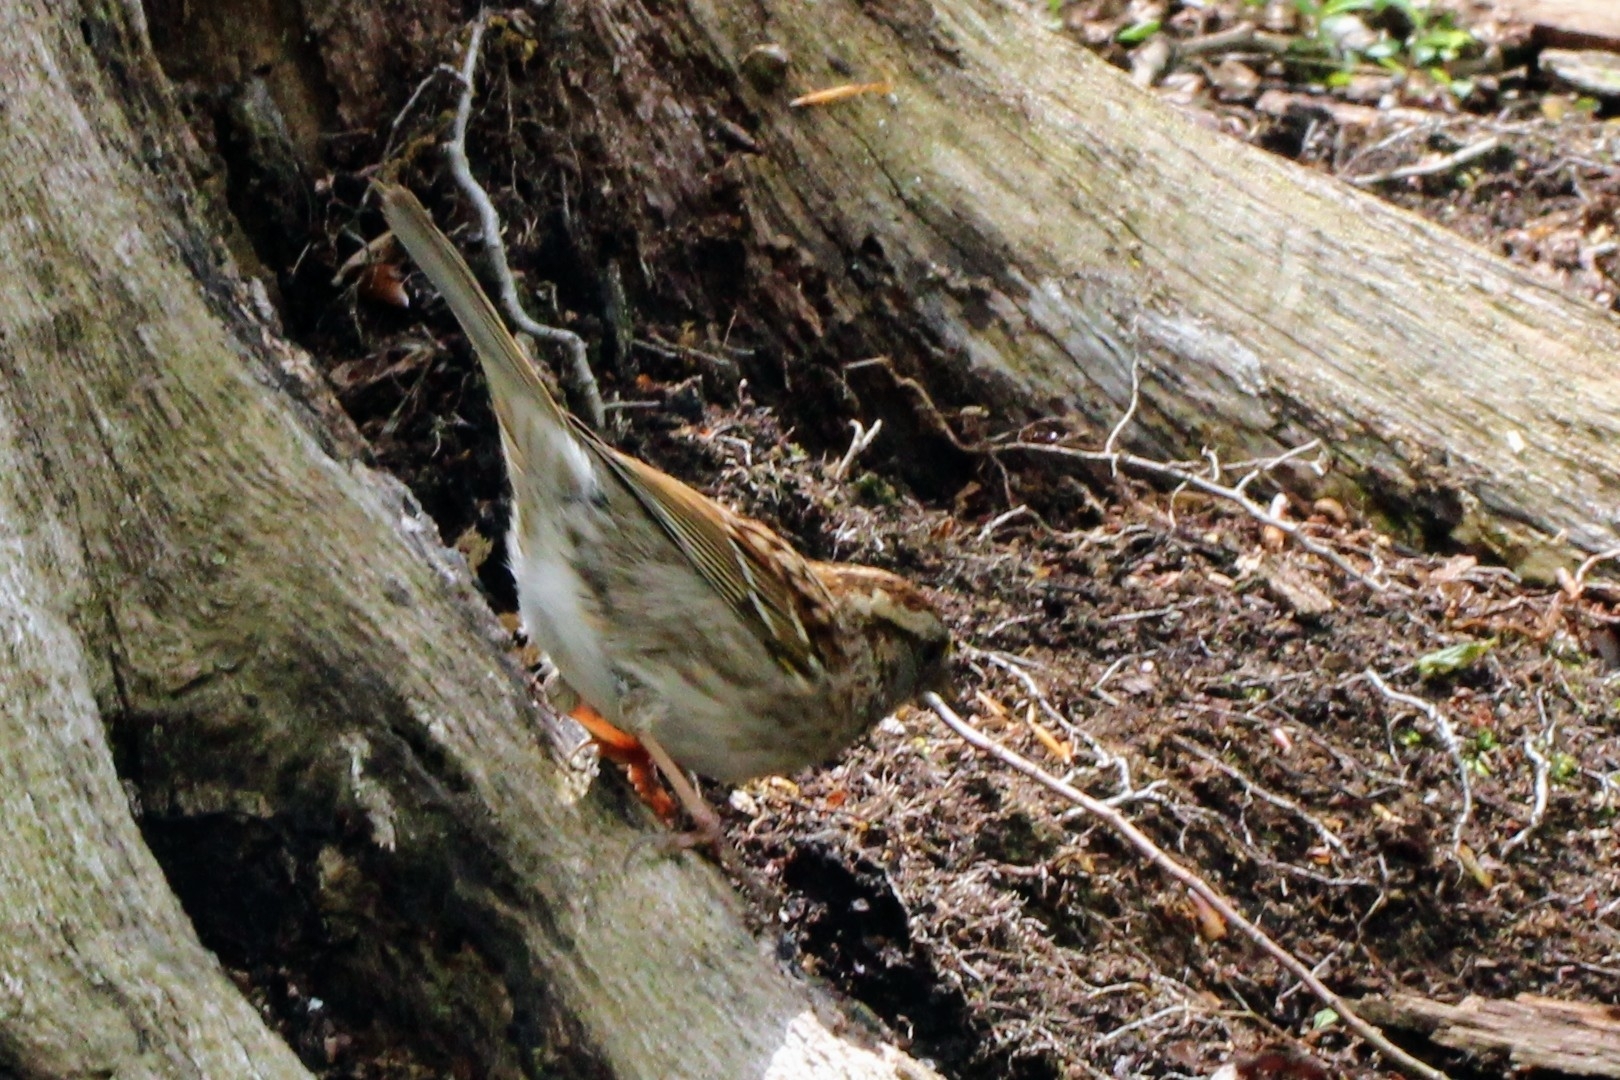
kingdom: Animalia
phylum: Chordata
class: Aves
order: Passeriformes
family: Passerellidae
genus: Zonotrichia
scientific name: Zonotrichia albicollis
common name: White-throated sparrow
